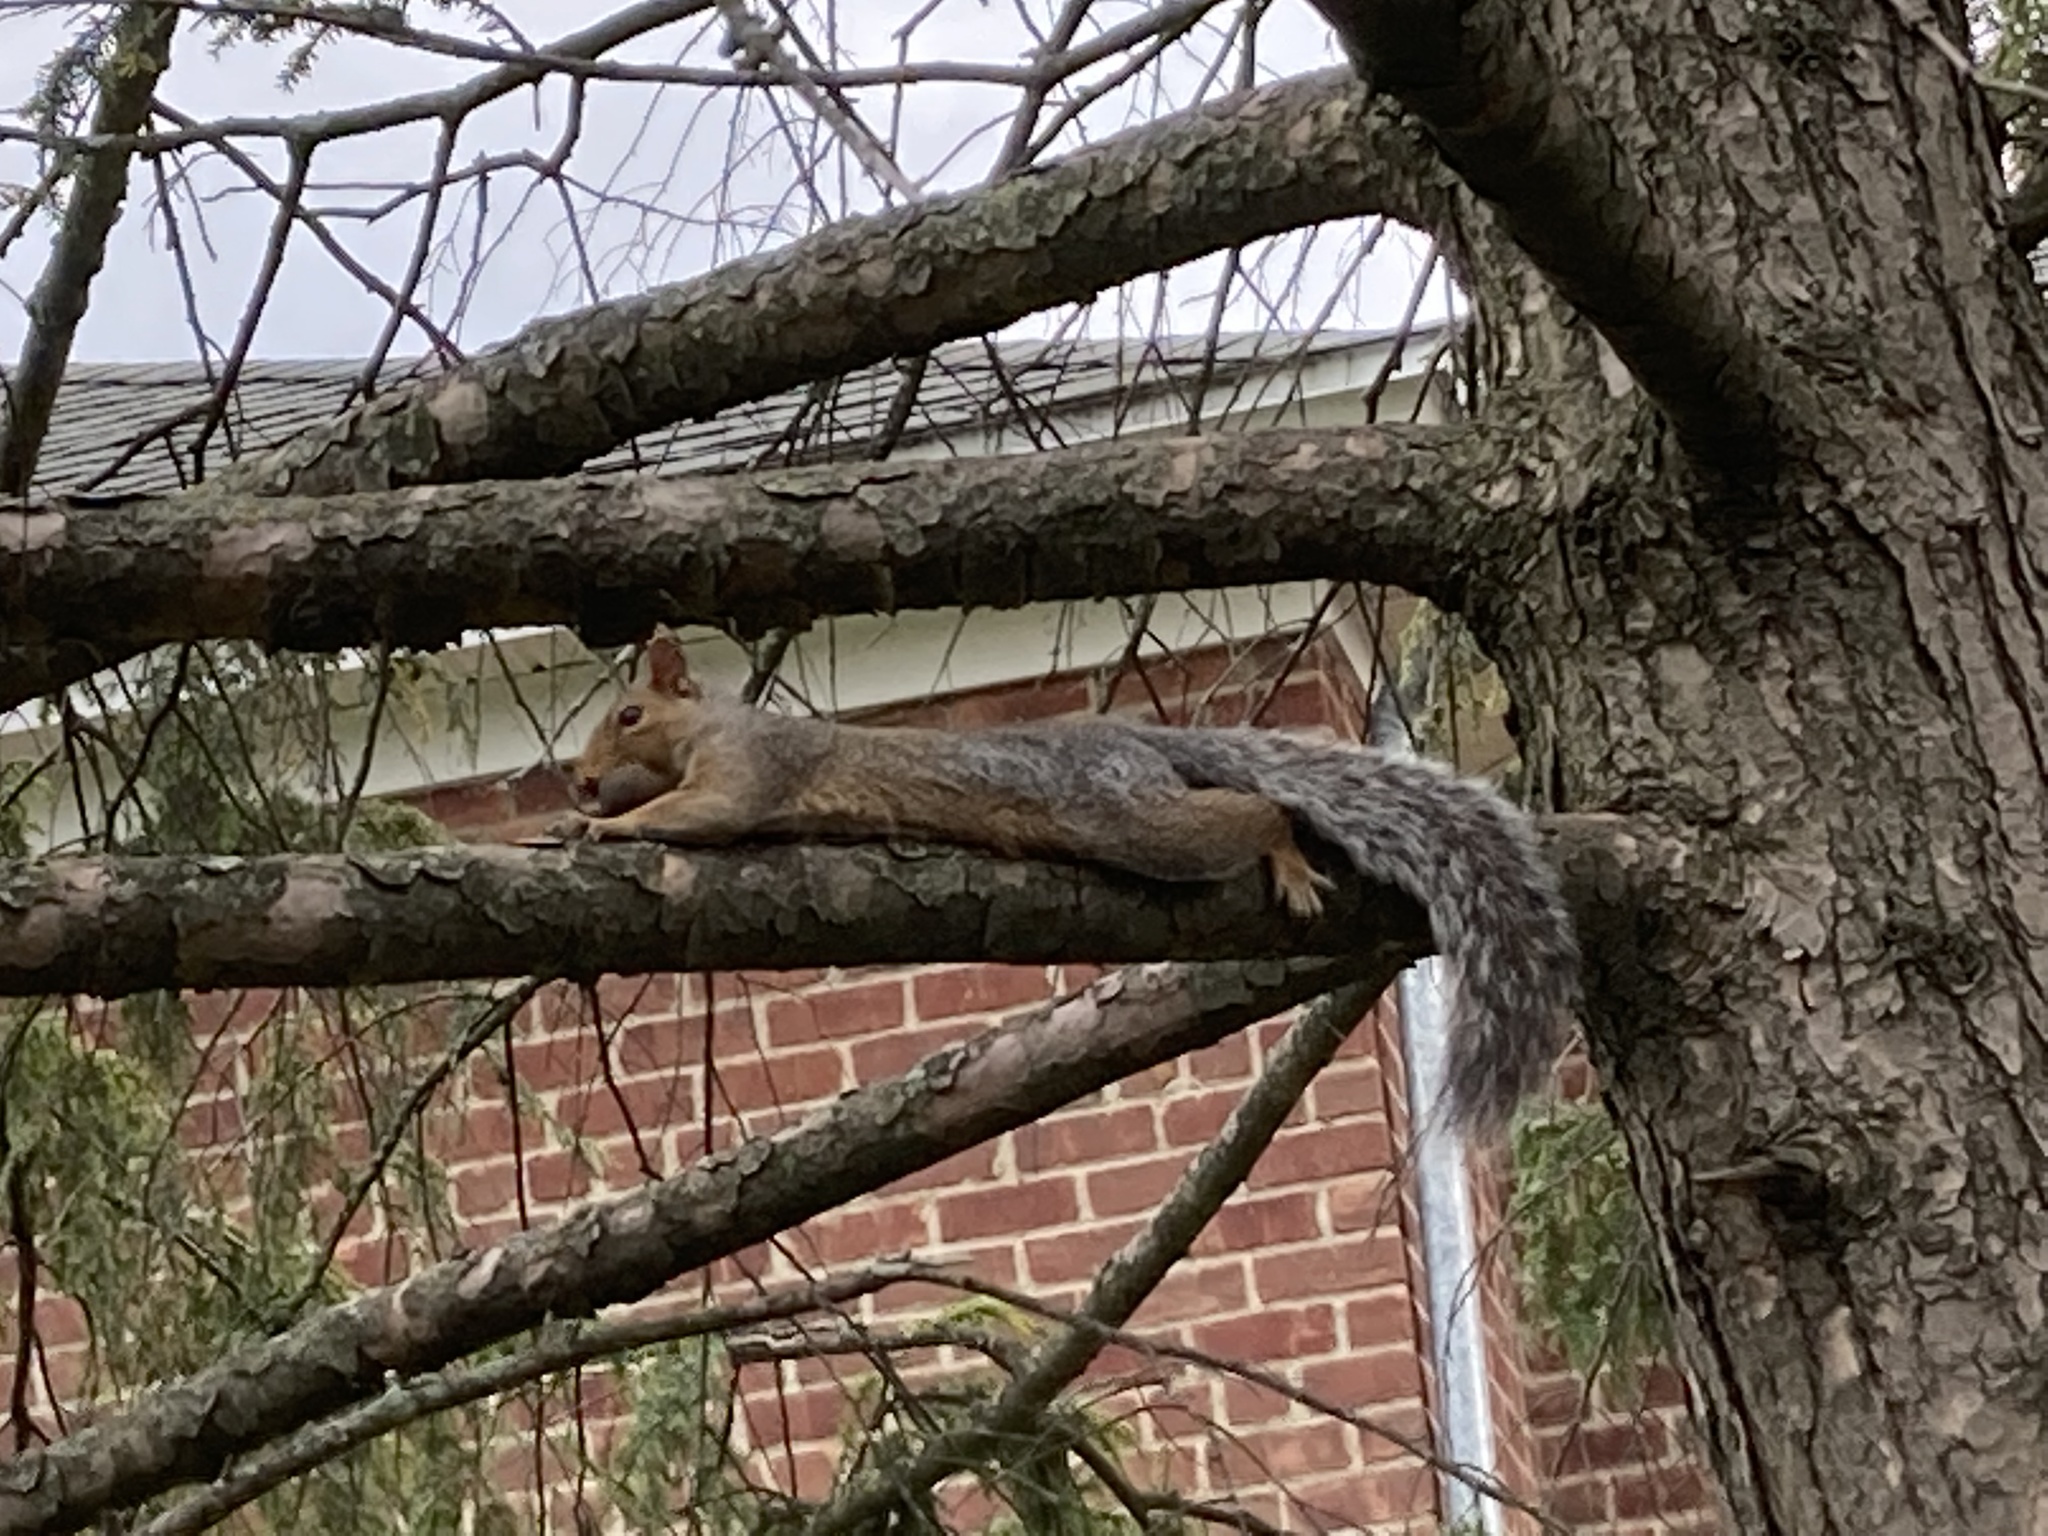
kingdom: Animalia
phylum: Chordata
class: Mammalia
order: Rodentia
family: Sciuridae
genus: Sciurus
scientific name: Sciurus carolinensis
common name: Eastern gray squirrel
